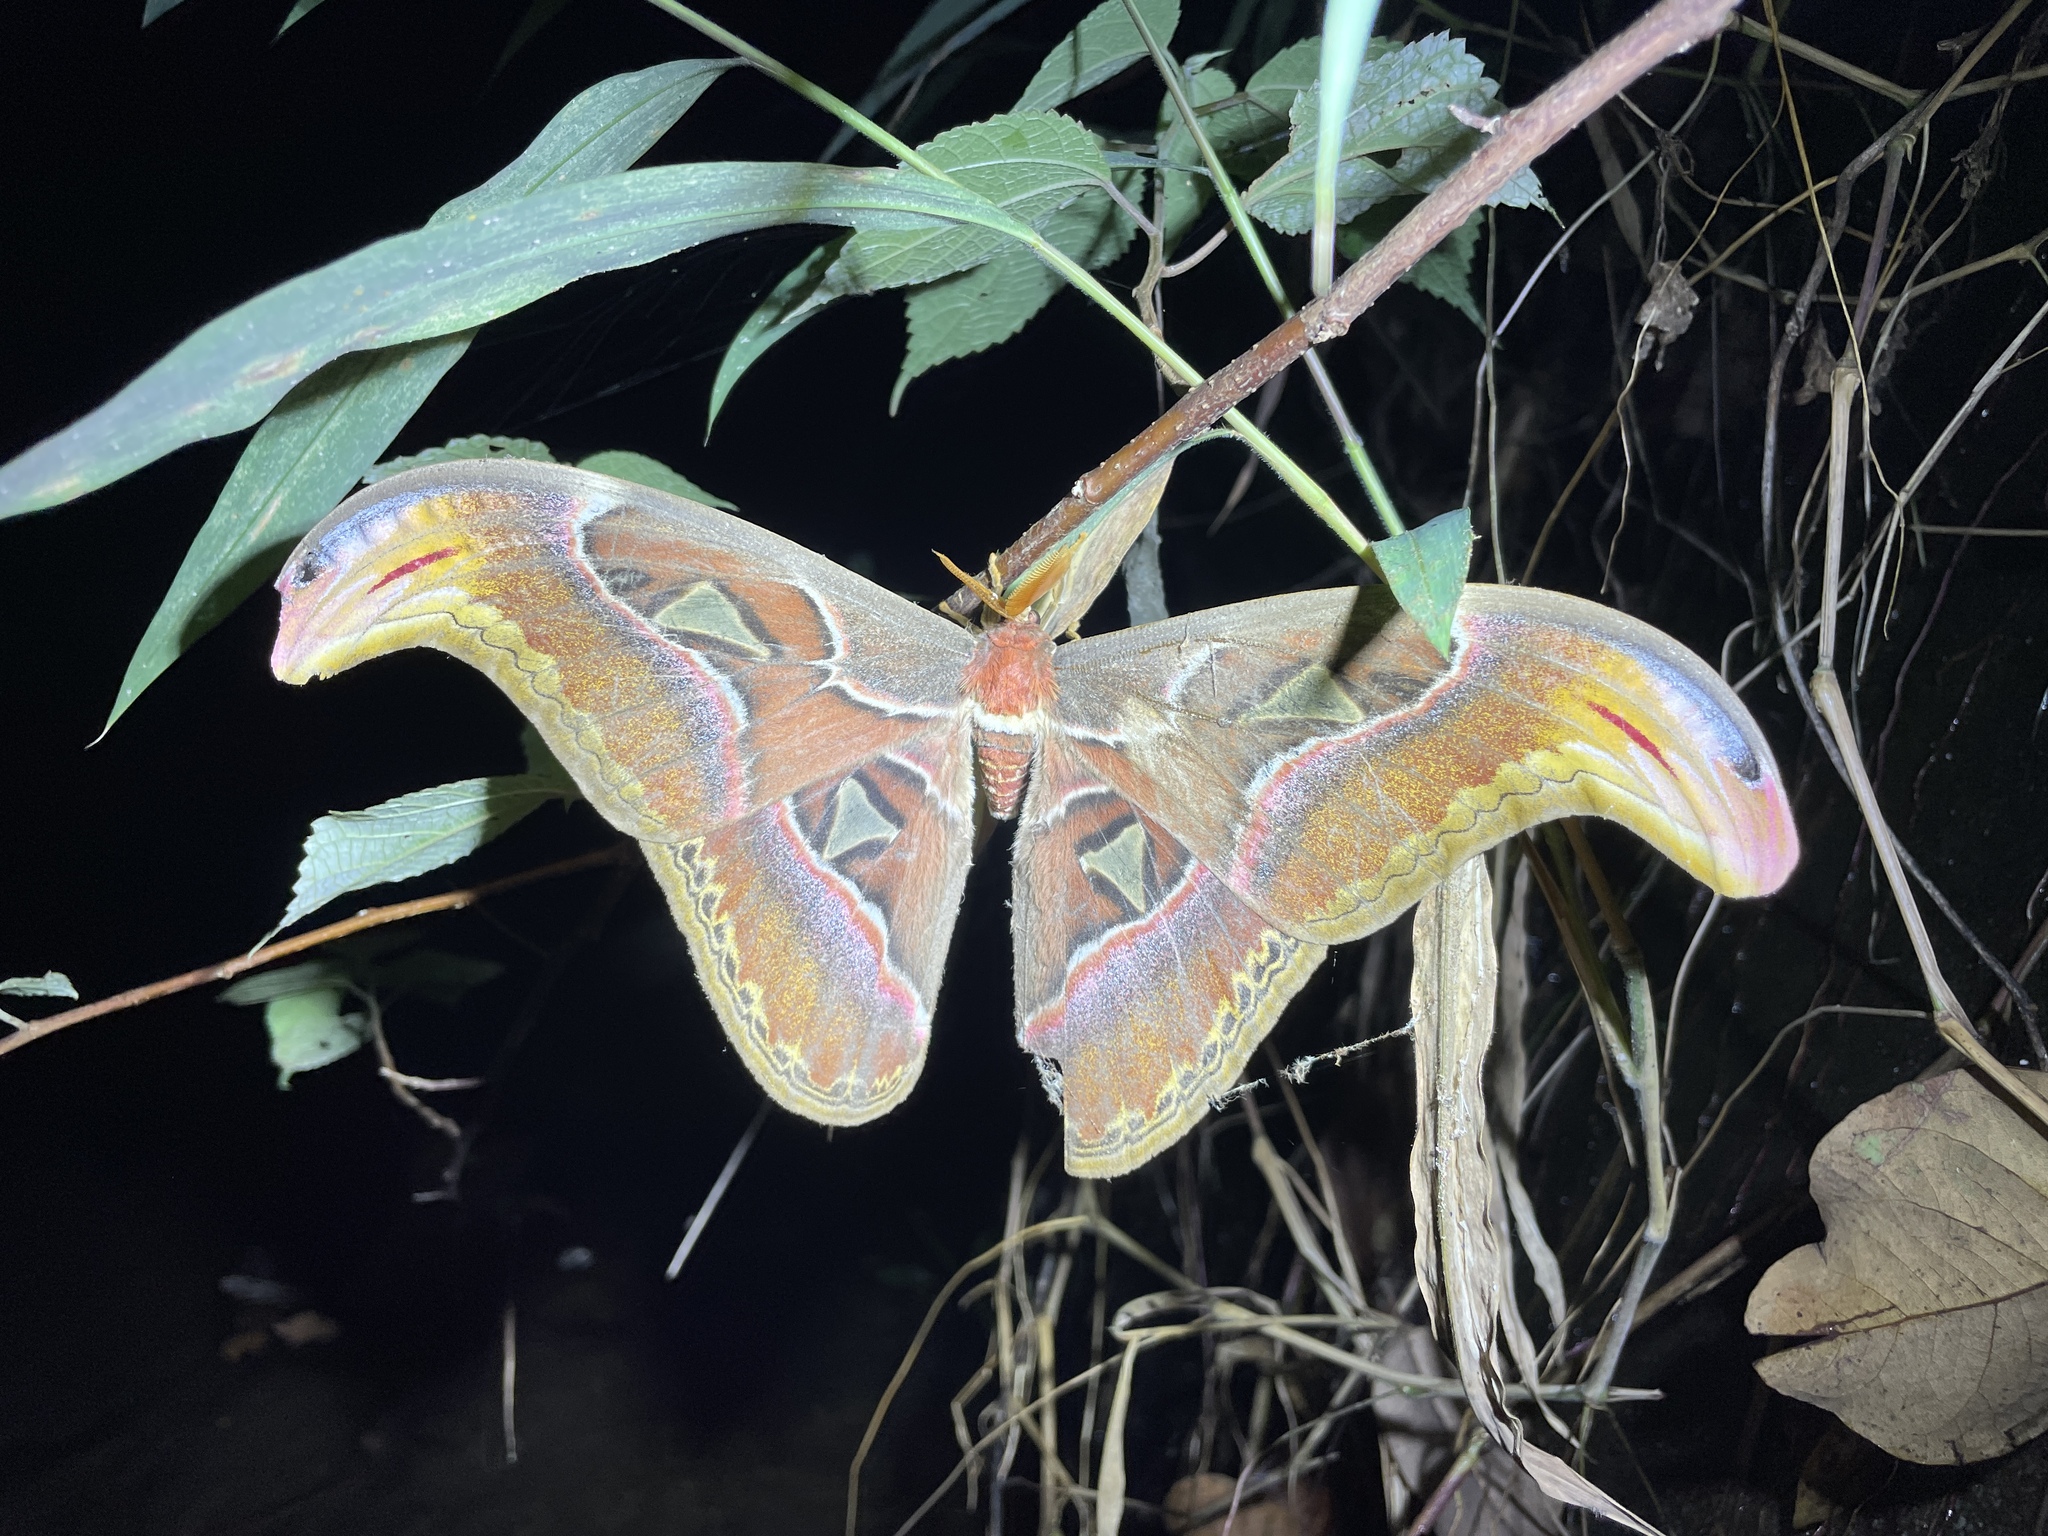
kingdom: Animalia
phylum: Arthropoda
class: Insecta
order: Lepidoptera
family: Saturniidae
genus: Attacus
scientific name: Attacus atlas
